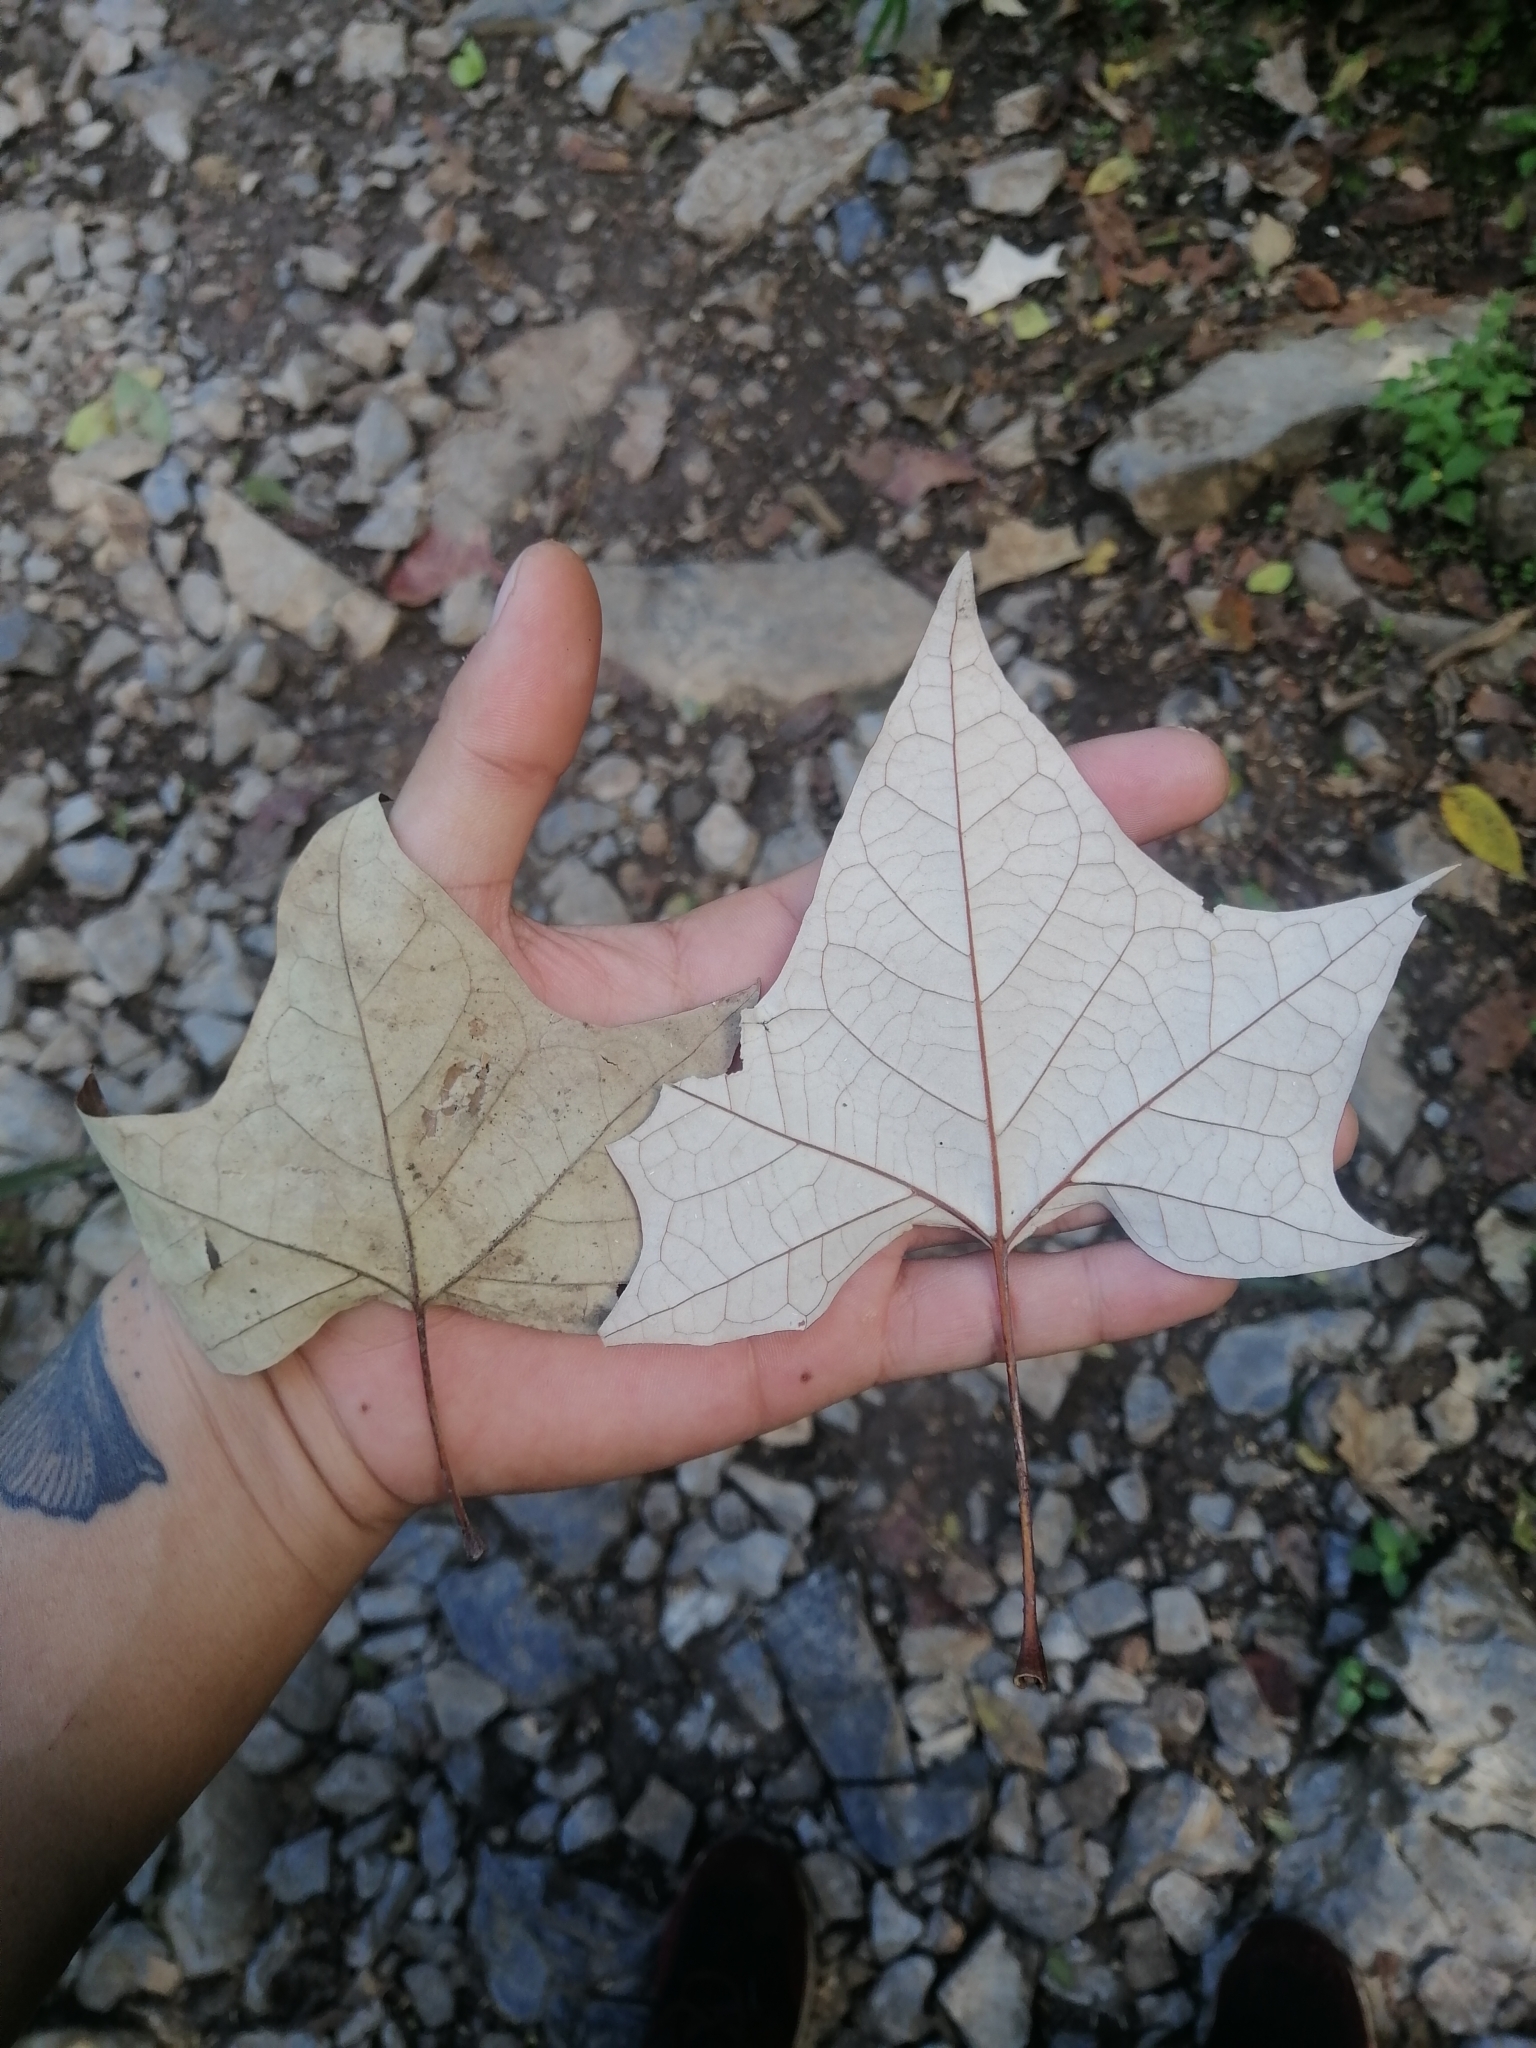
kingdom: Plantae
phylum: Tracheophyta
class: Magnoliopsida
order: Proteales
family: Platanaceae
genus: Platanus
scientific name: Platanus rzedowskii
